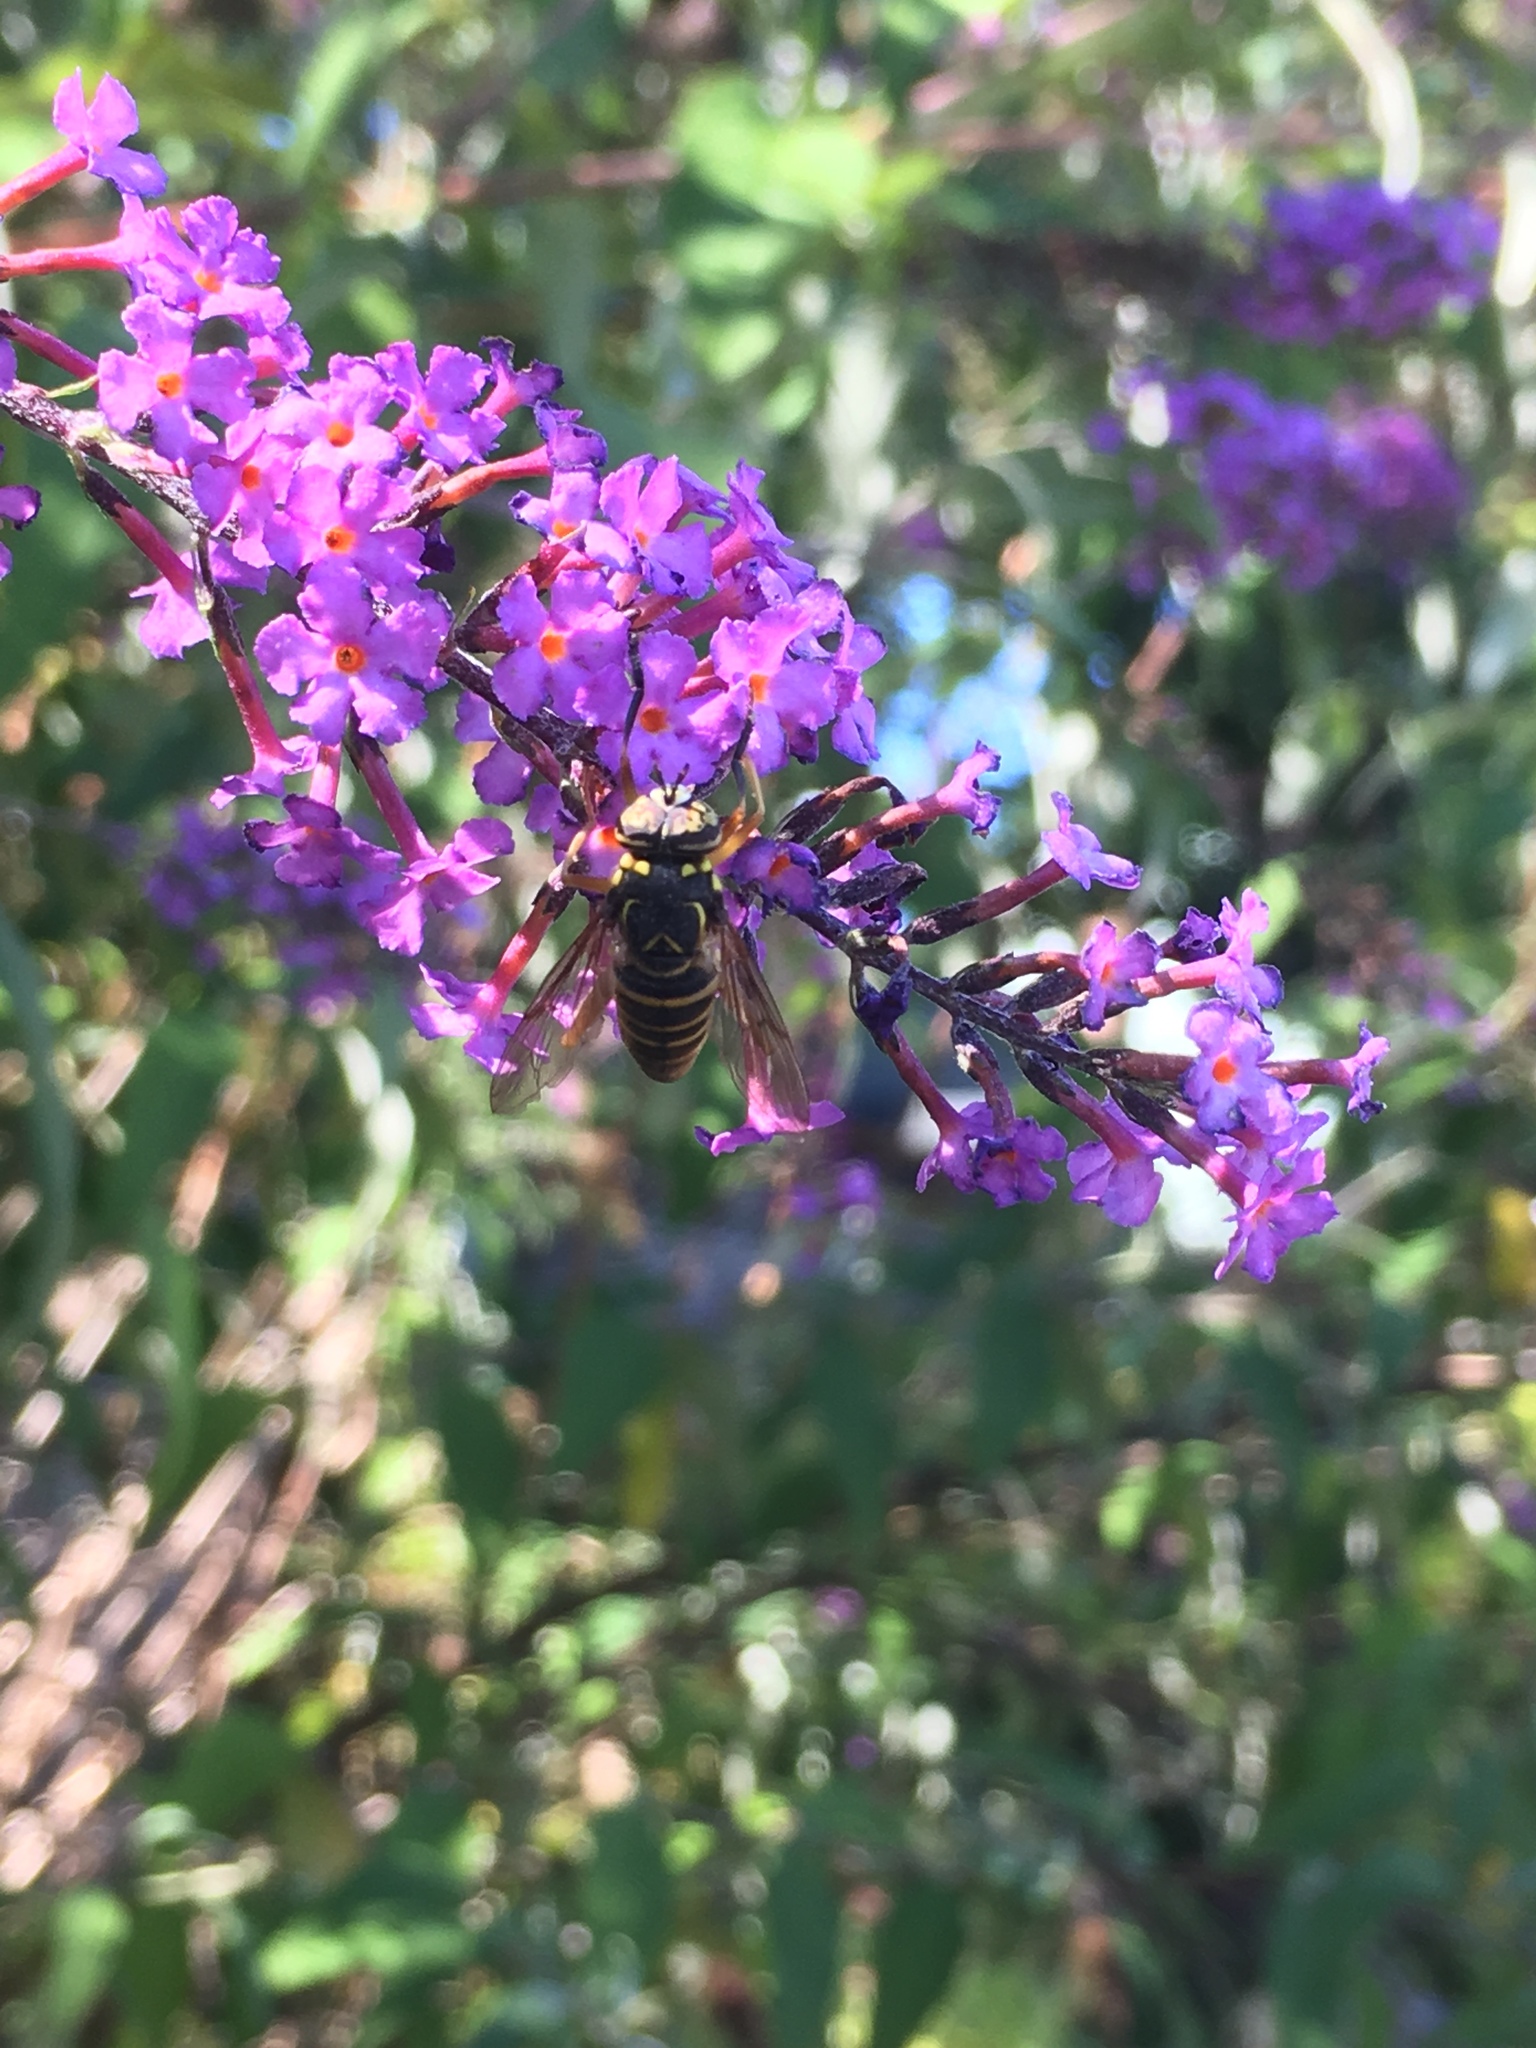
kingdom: Animalia
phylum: Arthropoda
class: Insecta
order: Diptera
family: Syrphidae
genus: Spilomyia
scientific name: Spilomyia longicornis
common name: Eastern hornet fly
